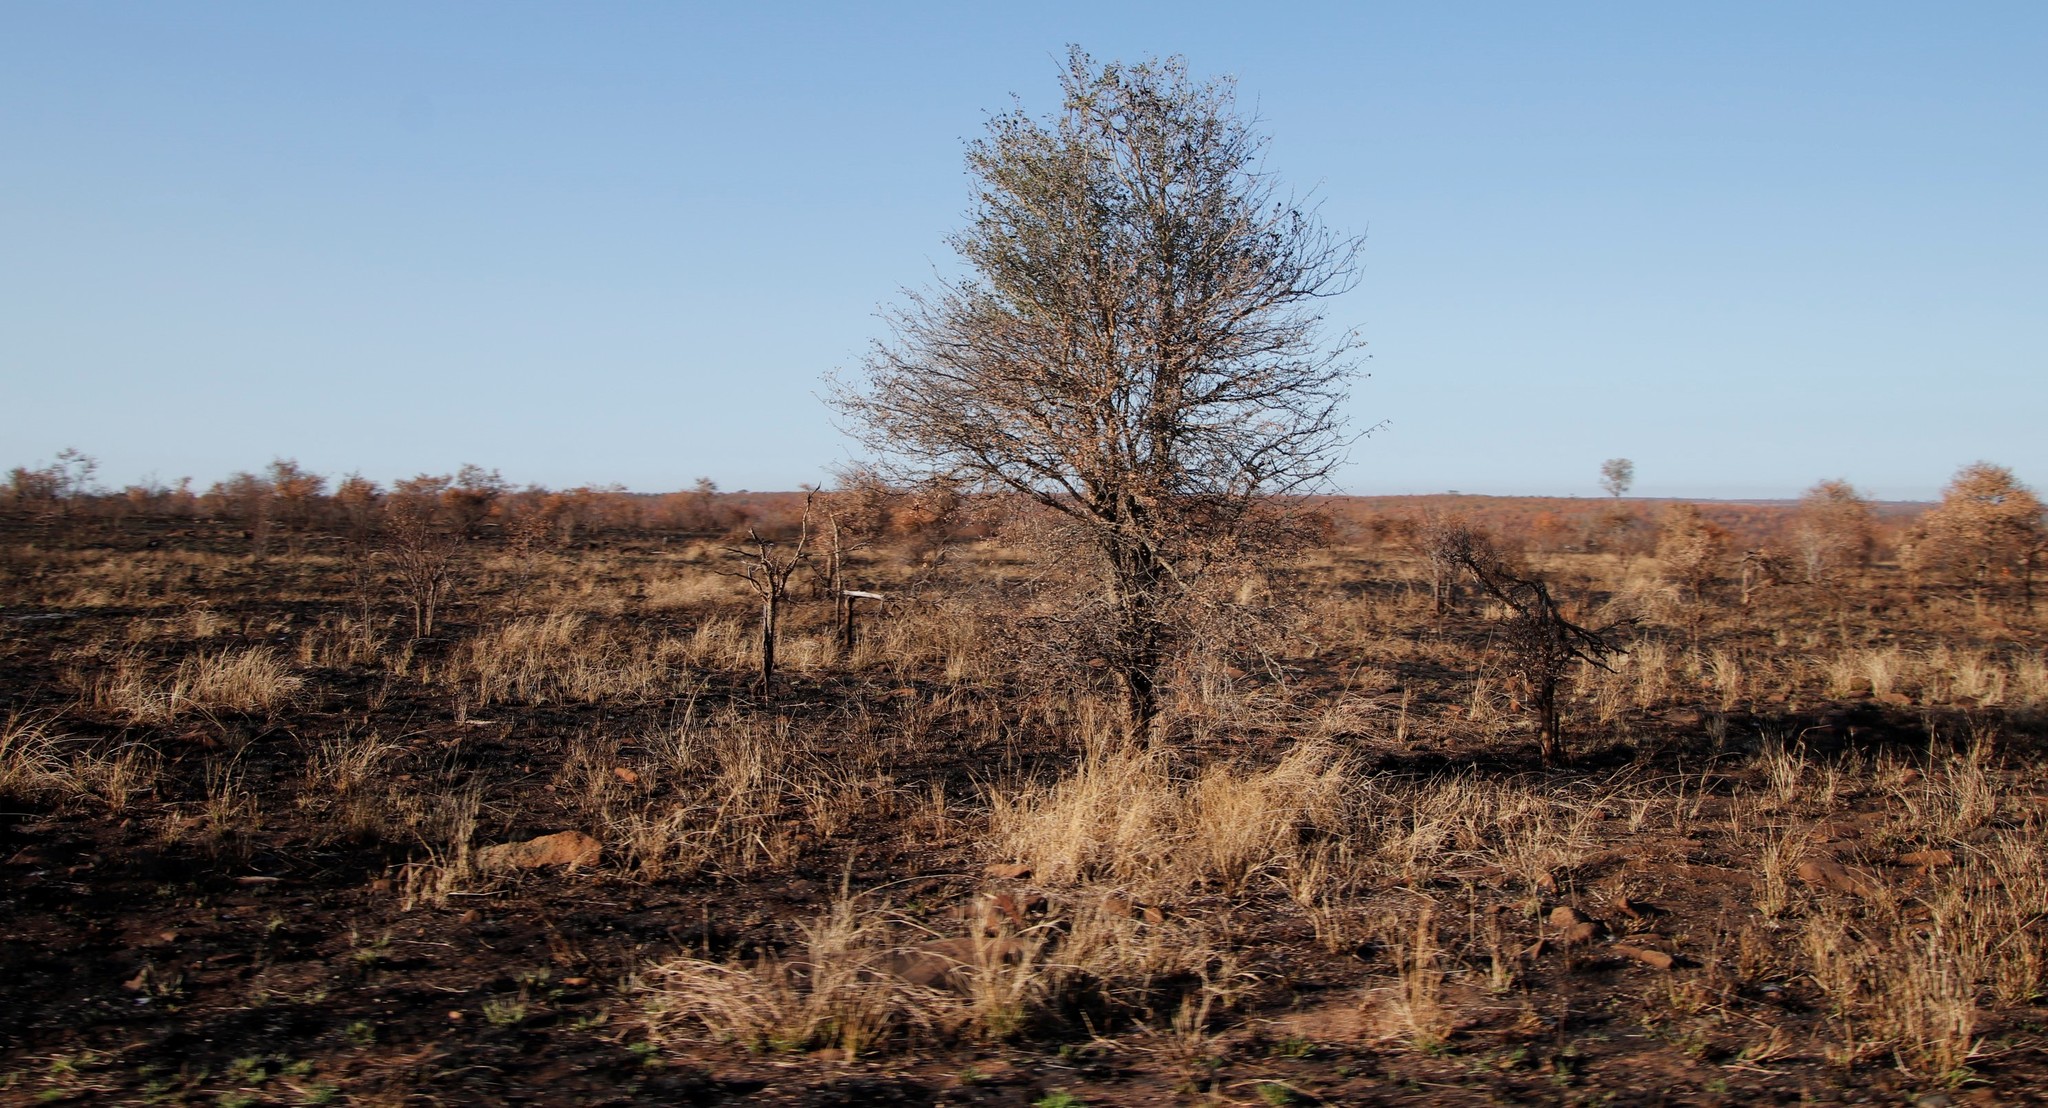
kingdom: Plantae
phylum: Tracheophyta
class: Magnoliopsida
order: Fabales
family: Fabaceae
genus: Senegalia
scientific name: Senegalia nigrescens
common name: Knobthorn
